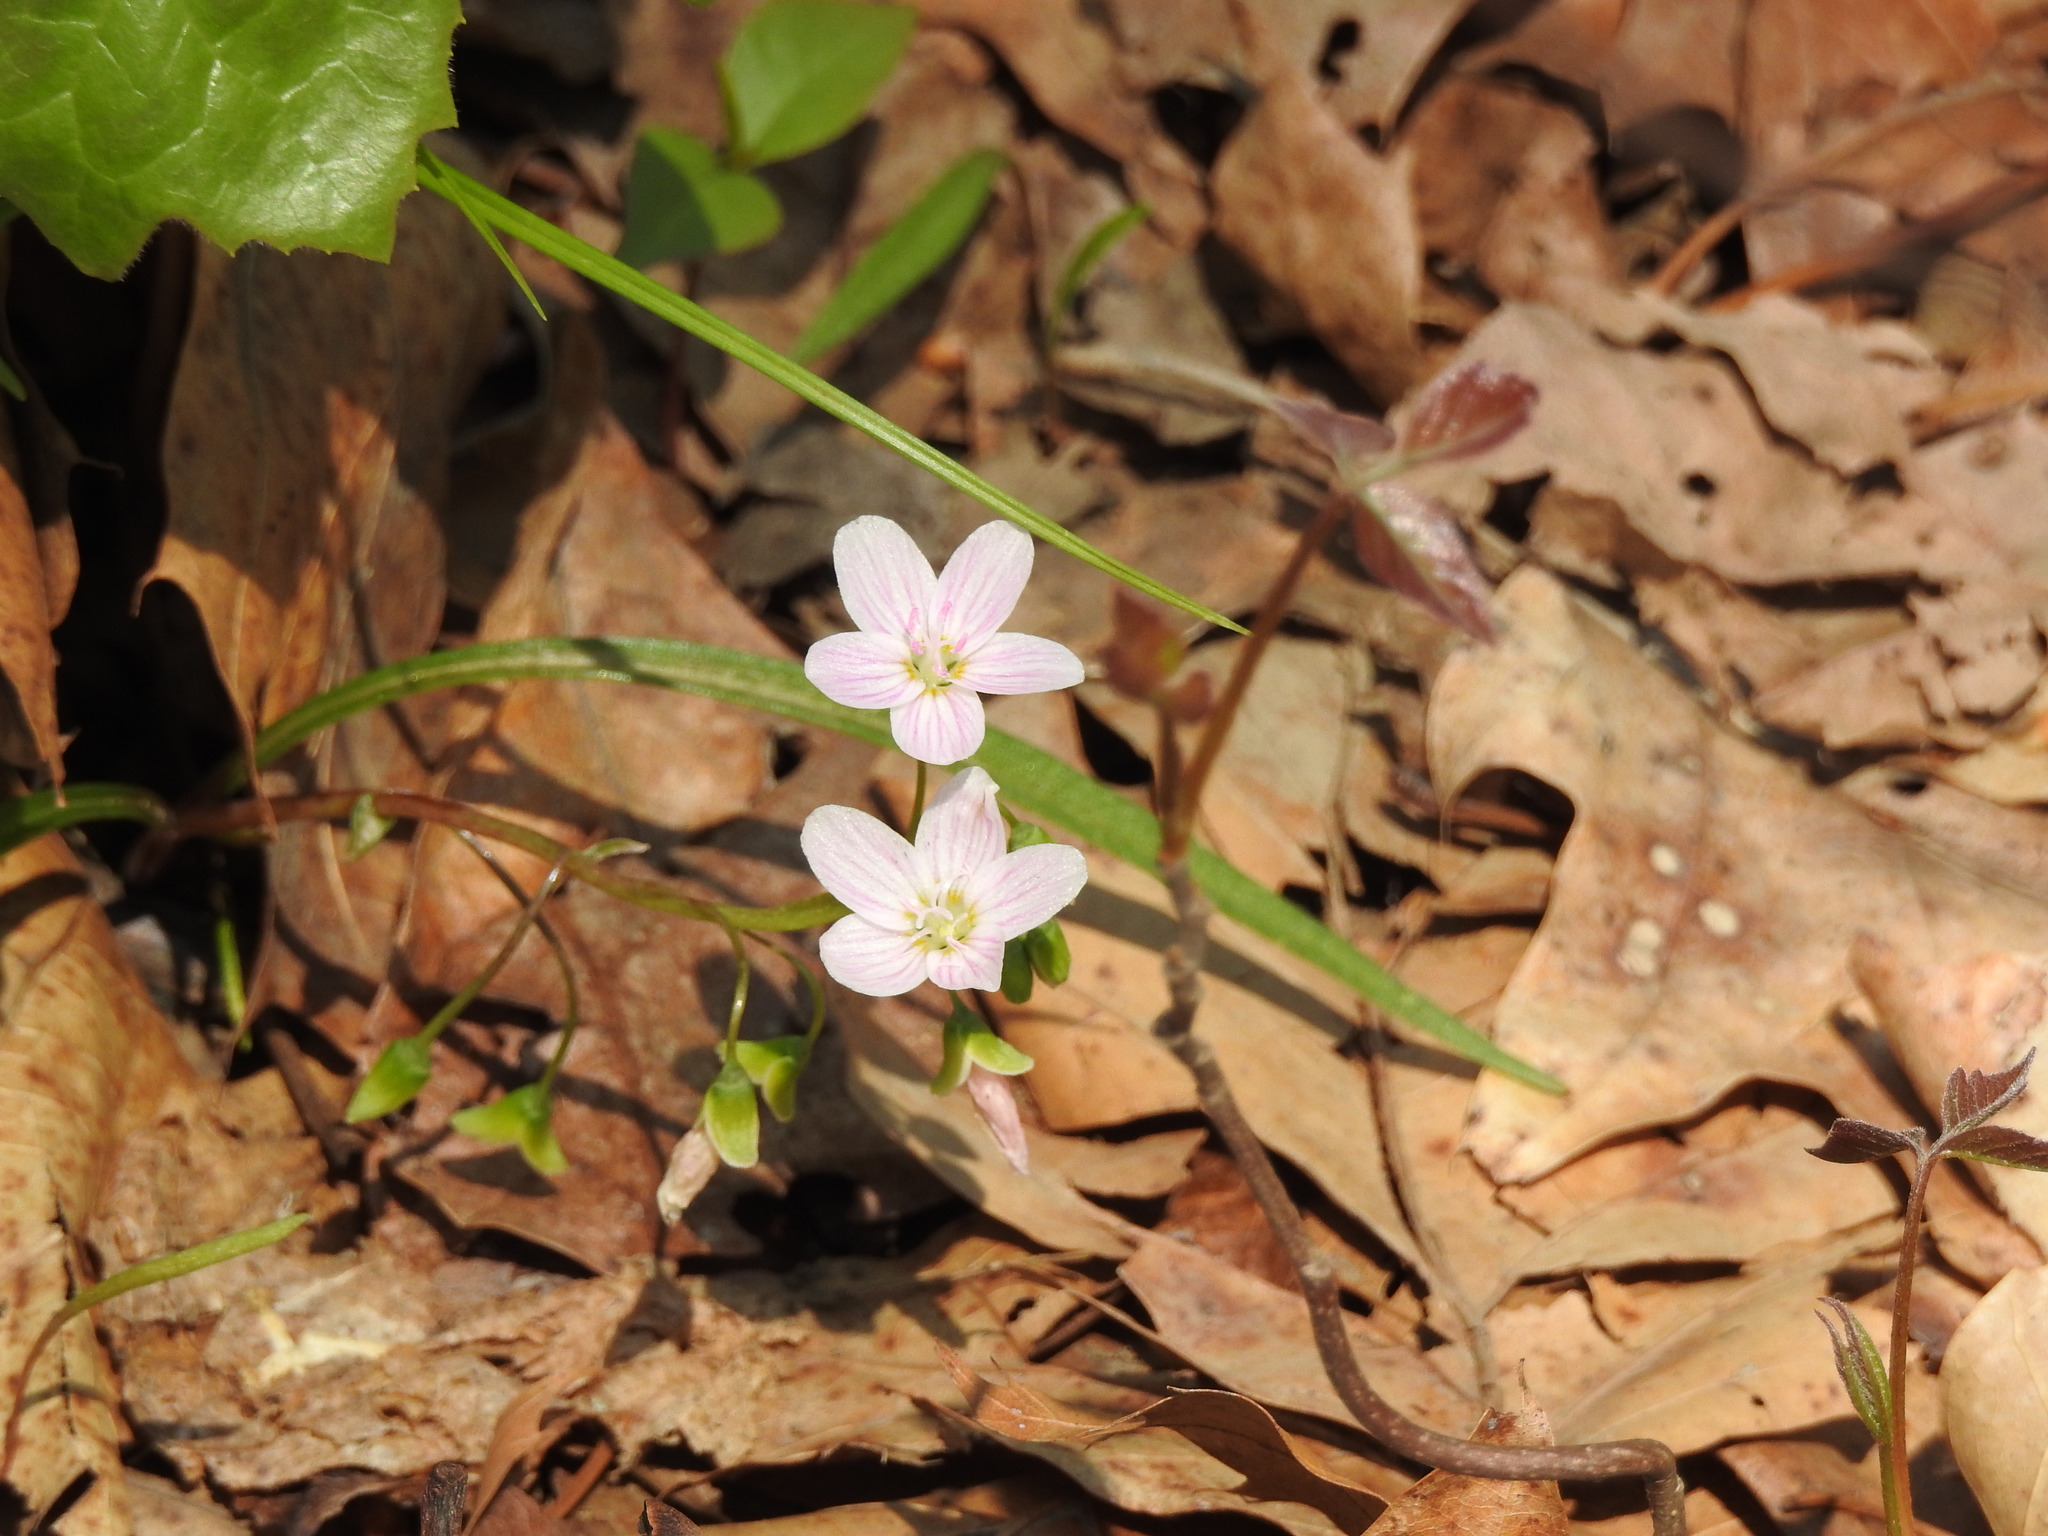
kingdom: Plantae
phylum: Tracheophyta
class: Magnoliopsida
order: Caryophyllales
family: Montiaceae
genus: Claytonia
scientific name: Claytonia virginica
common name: Virginia springbeauty
